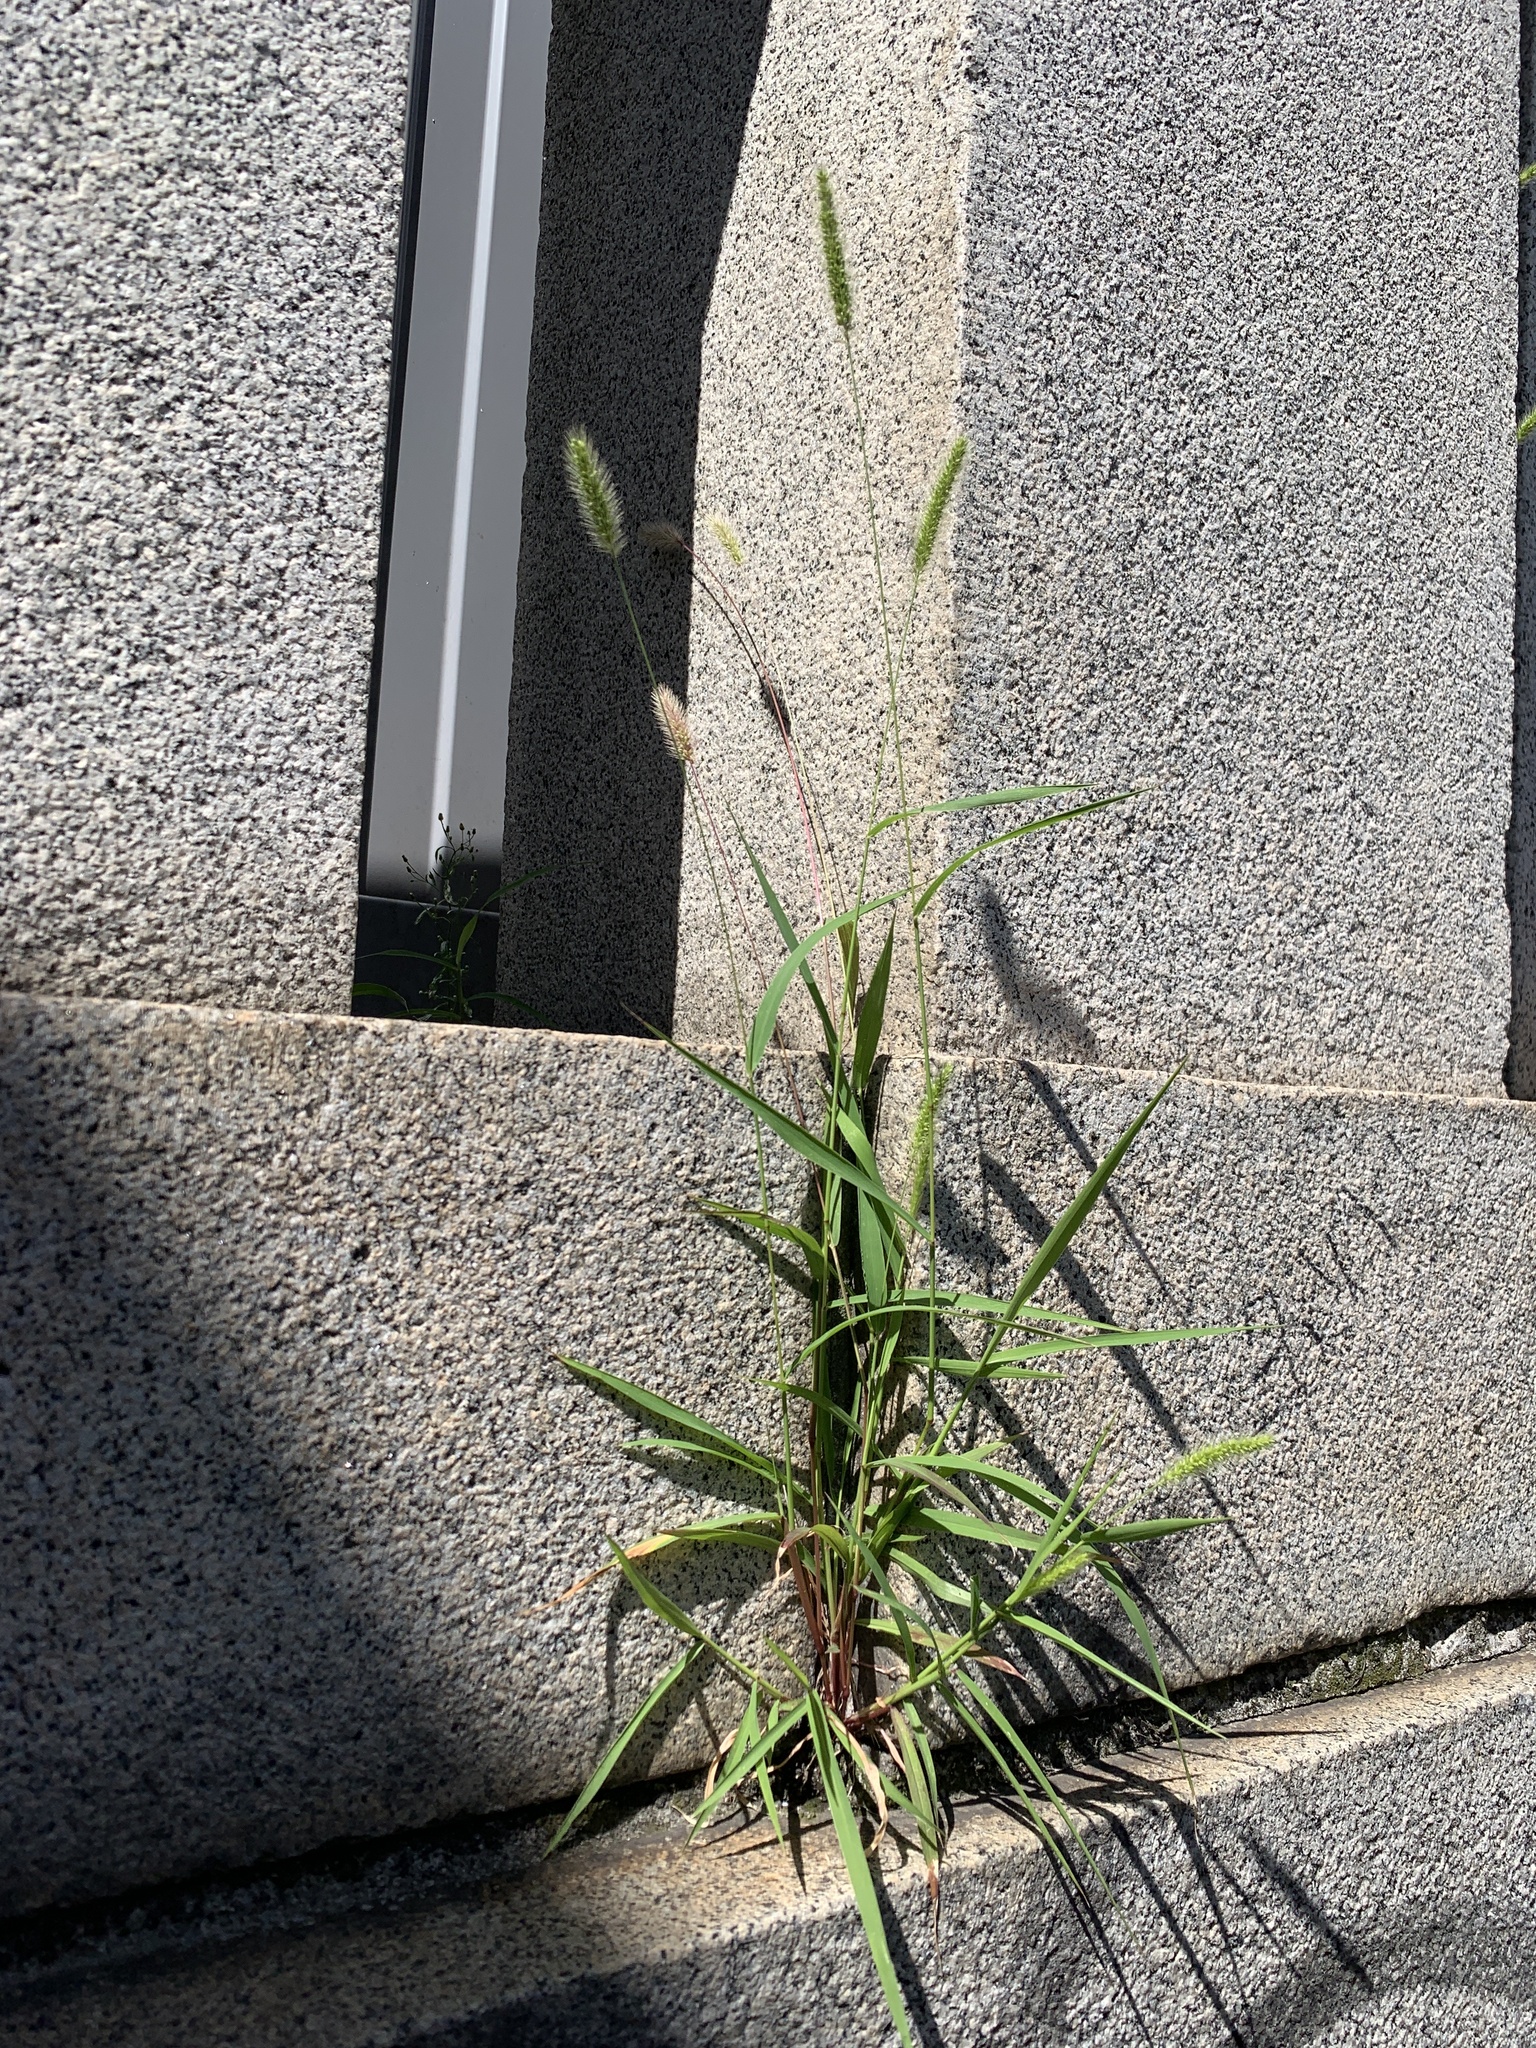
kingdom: Plantae
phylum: Tracheophyta
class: Liliopsida
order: Poales
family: Poaceae
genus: Setaria
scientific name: Setaria viridis
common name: Green bristlegrass
